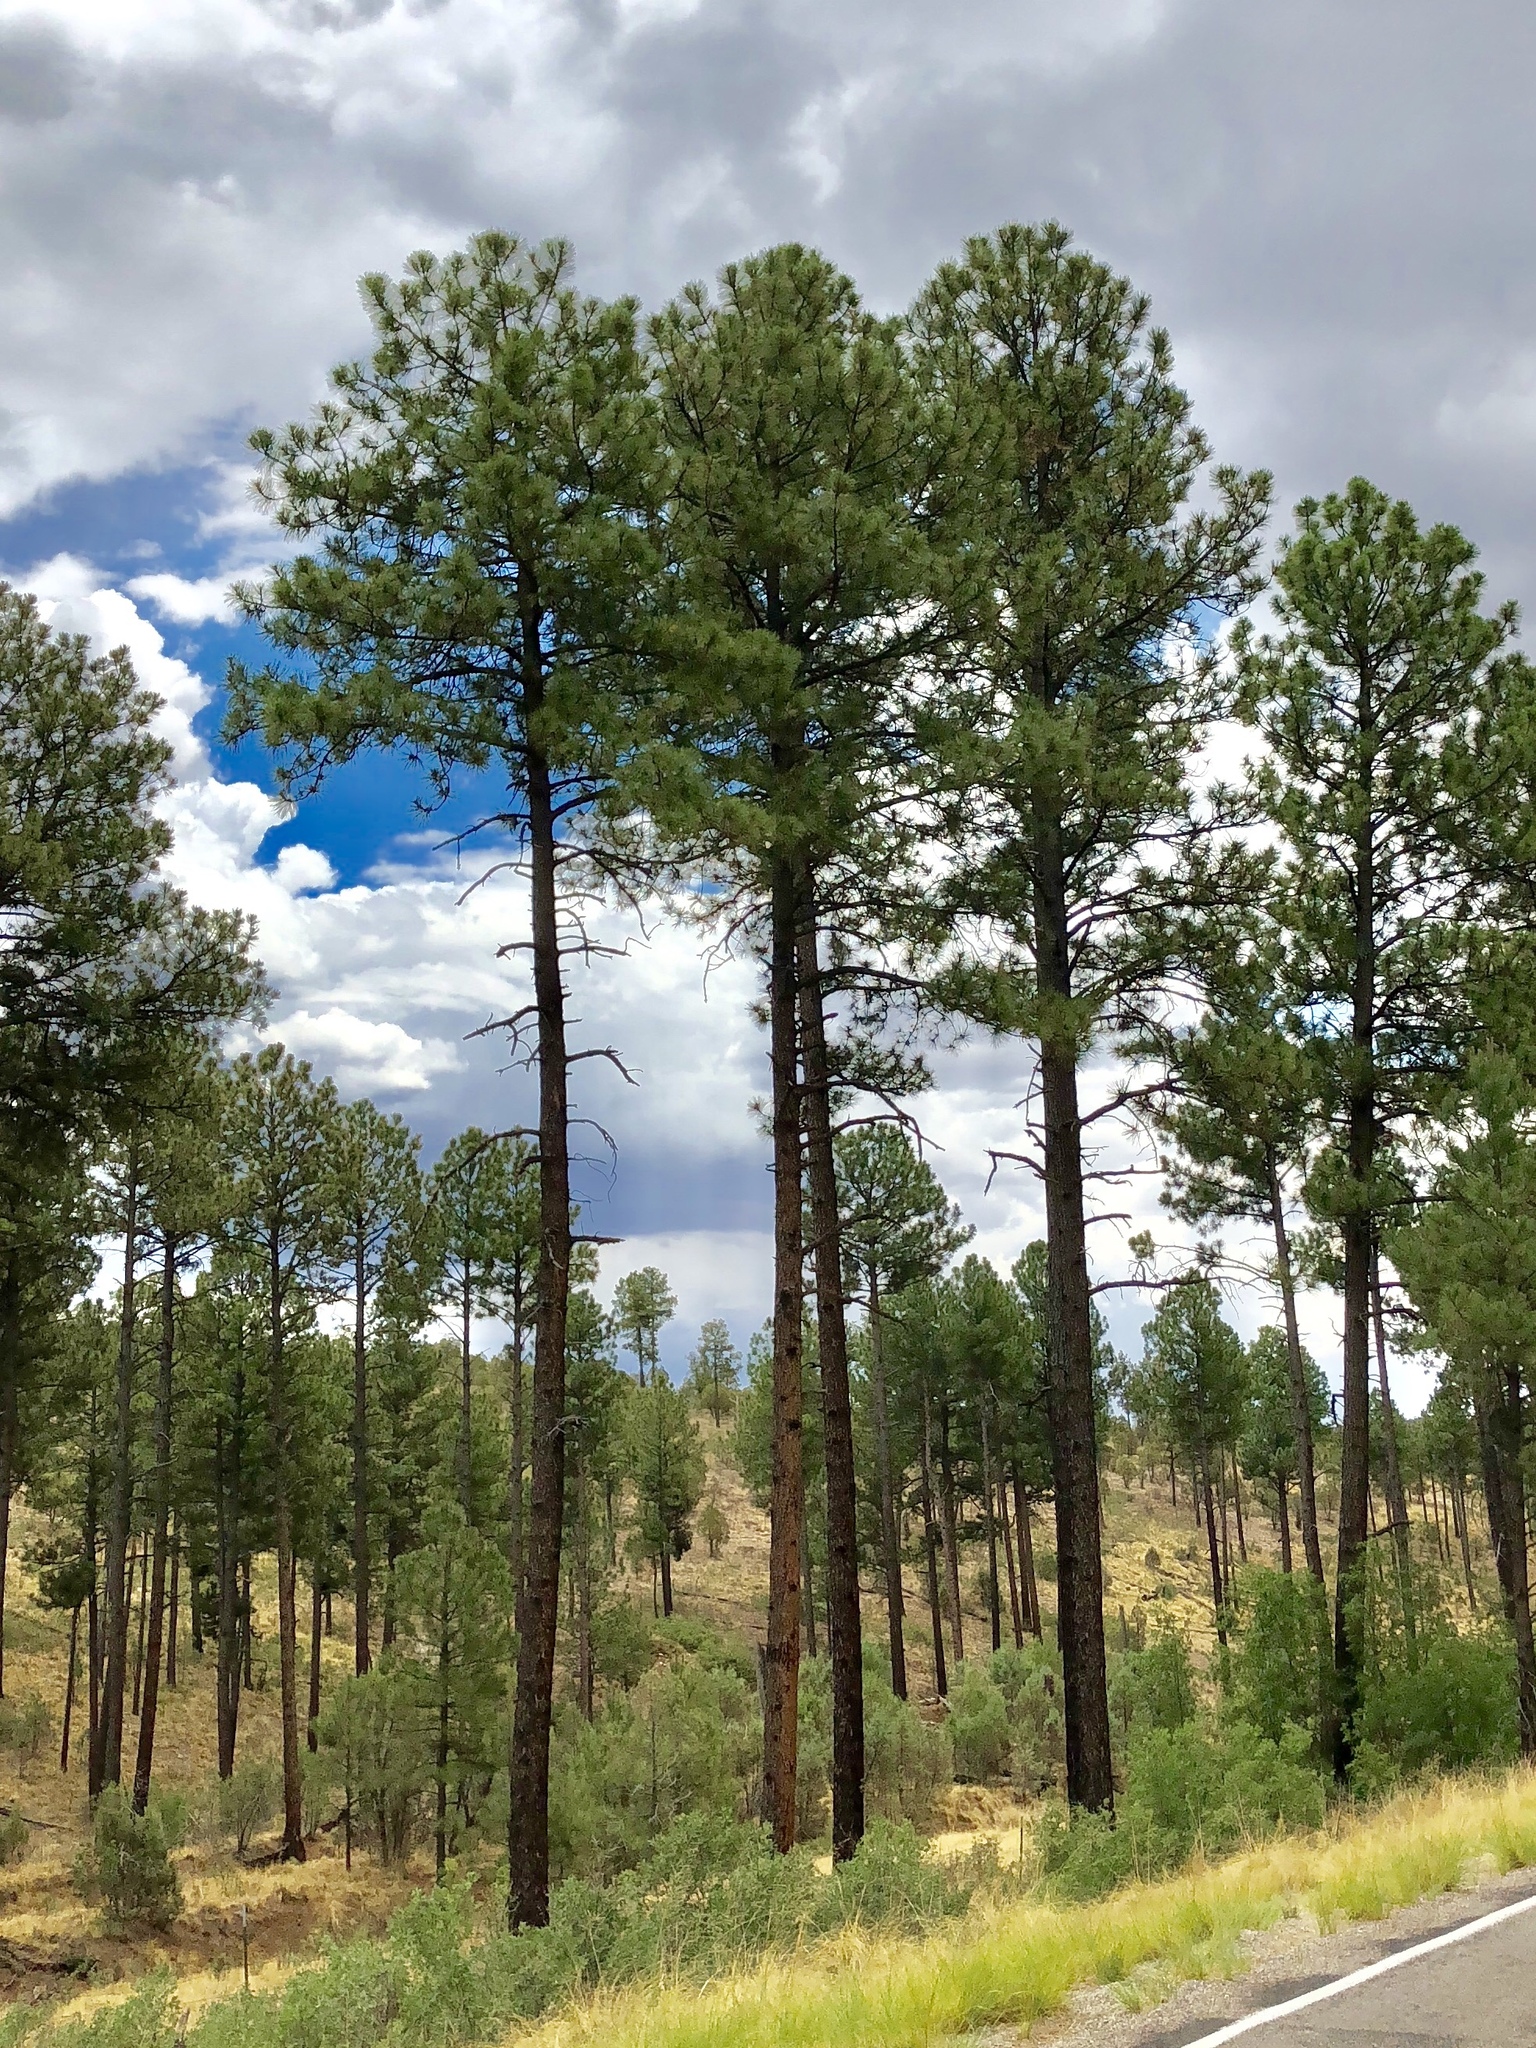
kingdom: Plantae
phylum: Tracheophyta
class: Pinopsida
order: Pinales
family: Pinaceae
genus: Pinus
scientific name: Pinus ponderosa
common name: Western yellow-pine
